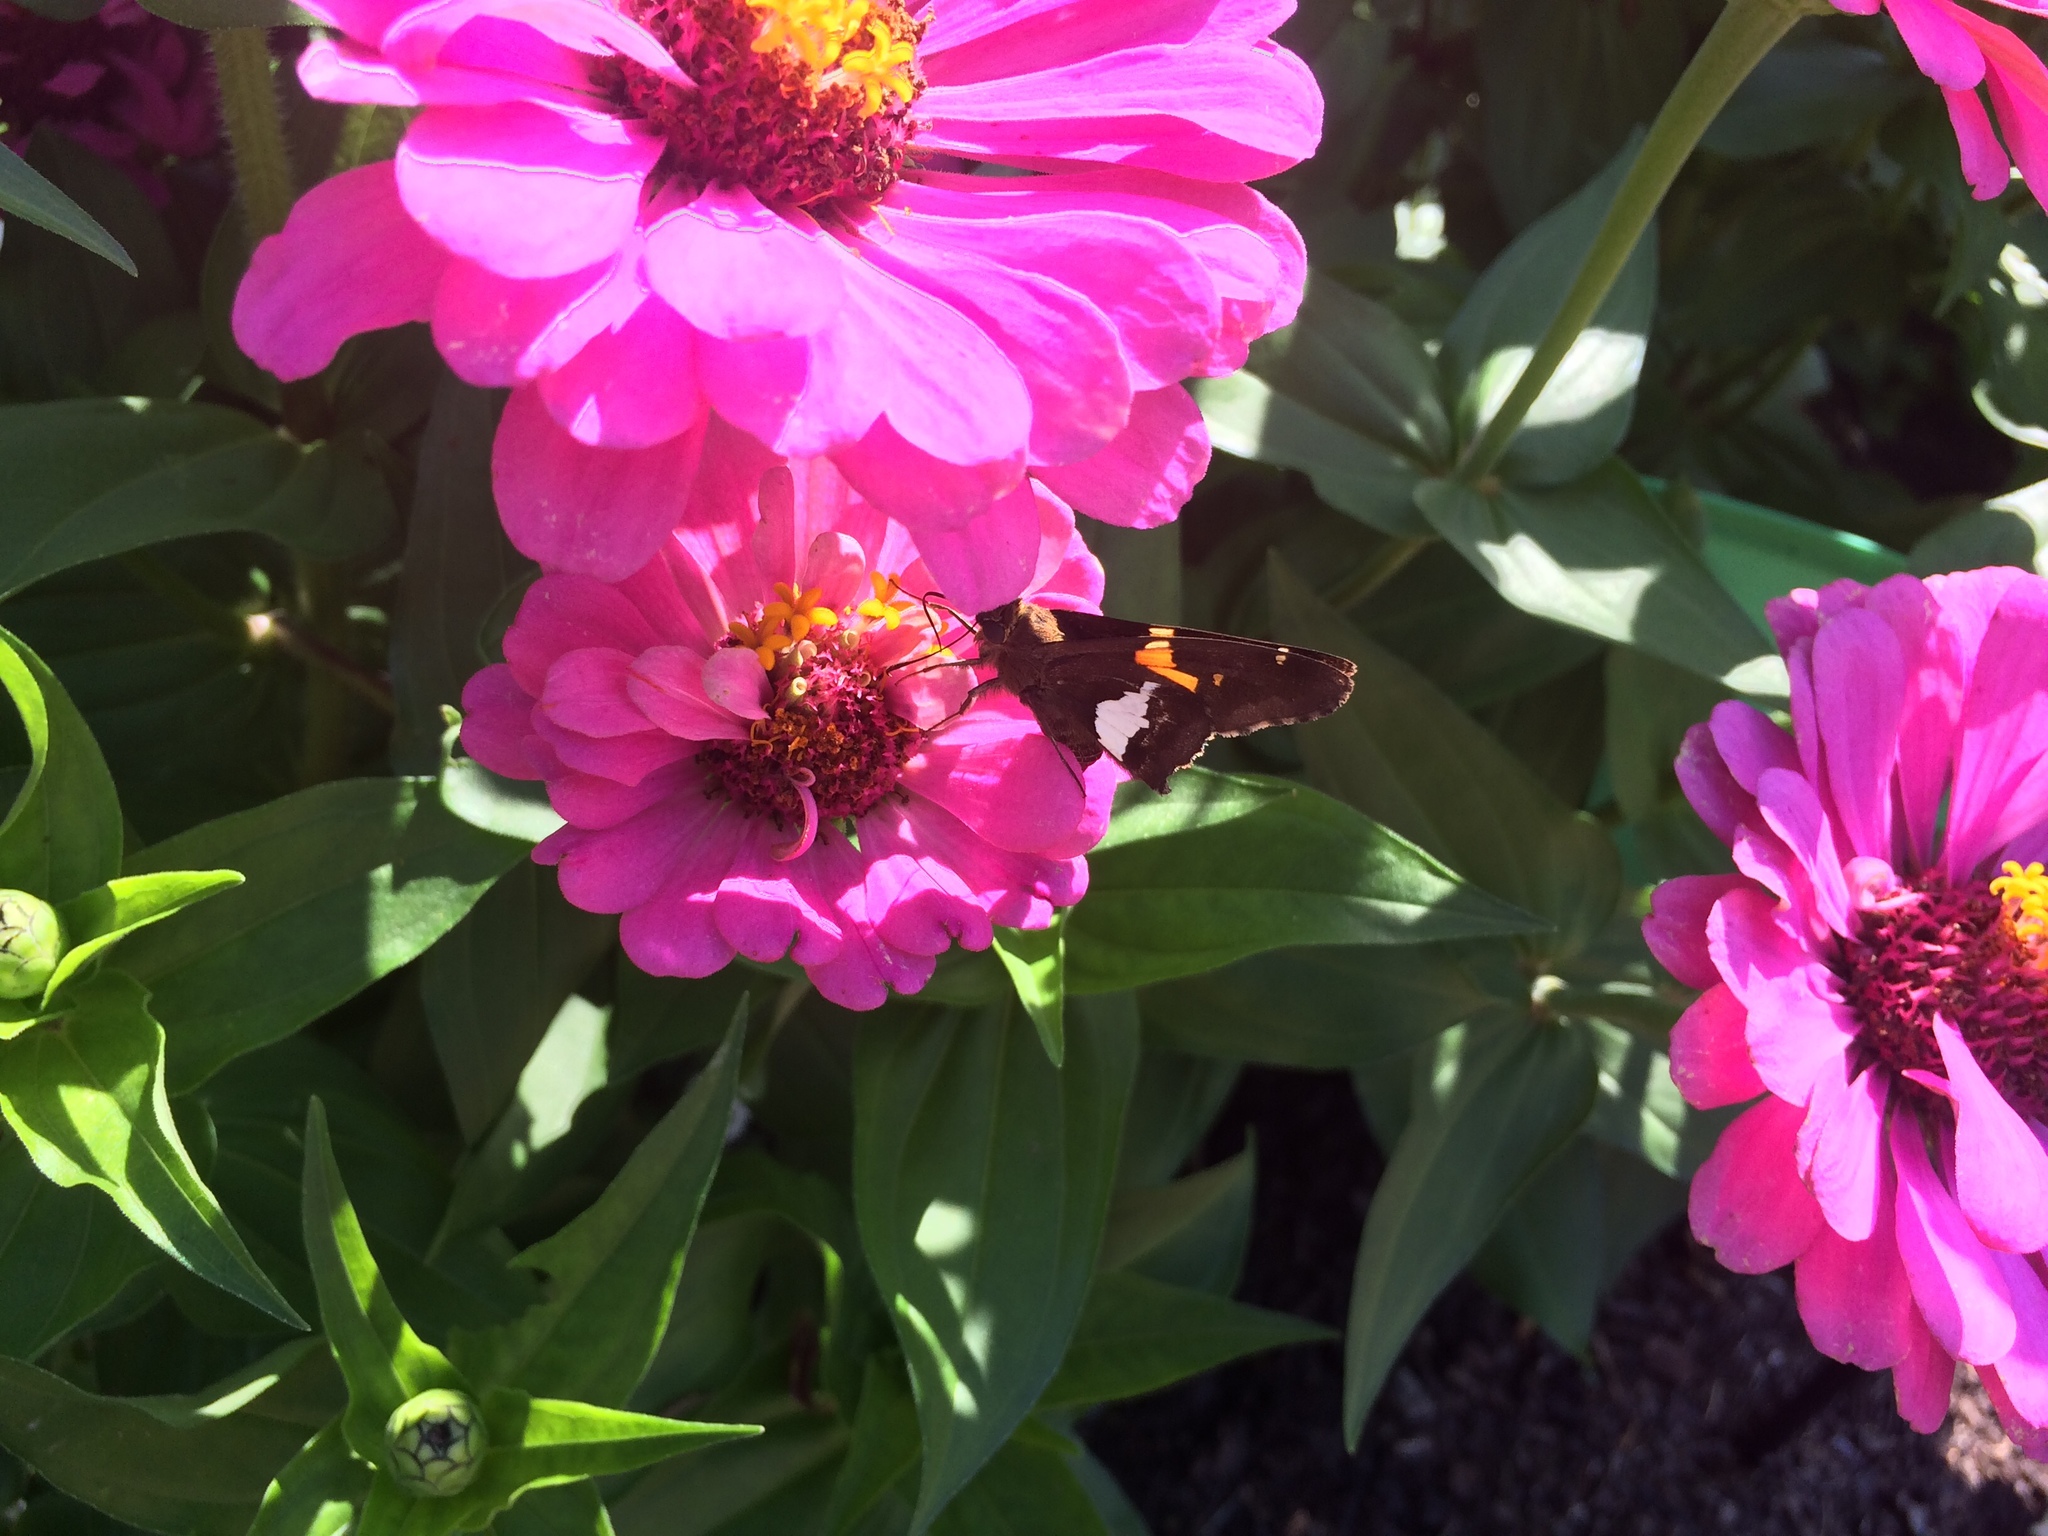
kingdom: Animalia
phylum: Arthropoda
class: Insecta
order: Lepidoptera
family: Hesperiidae
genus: Epargyreus
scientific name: Epargyreus clarus
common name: Silver-spotted skipper
